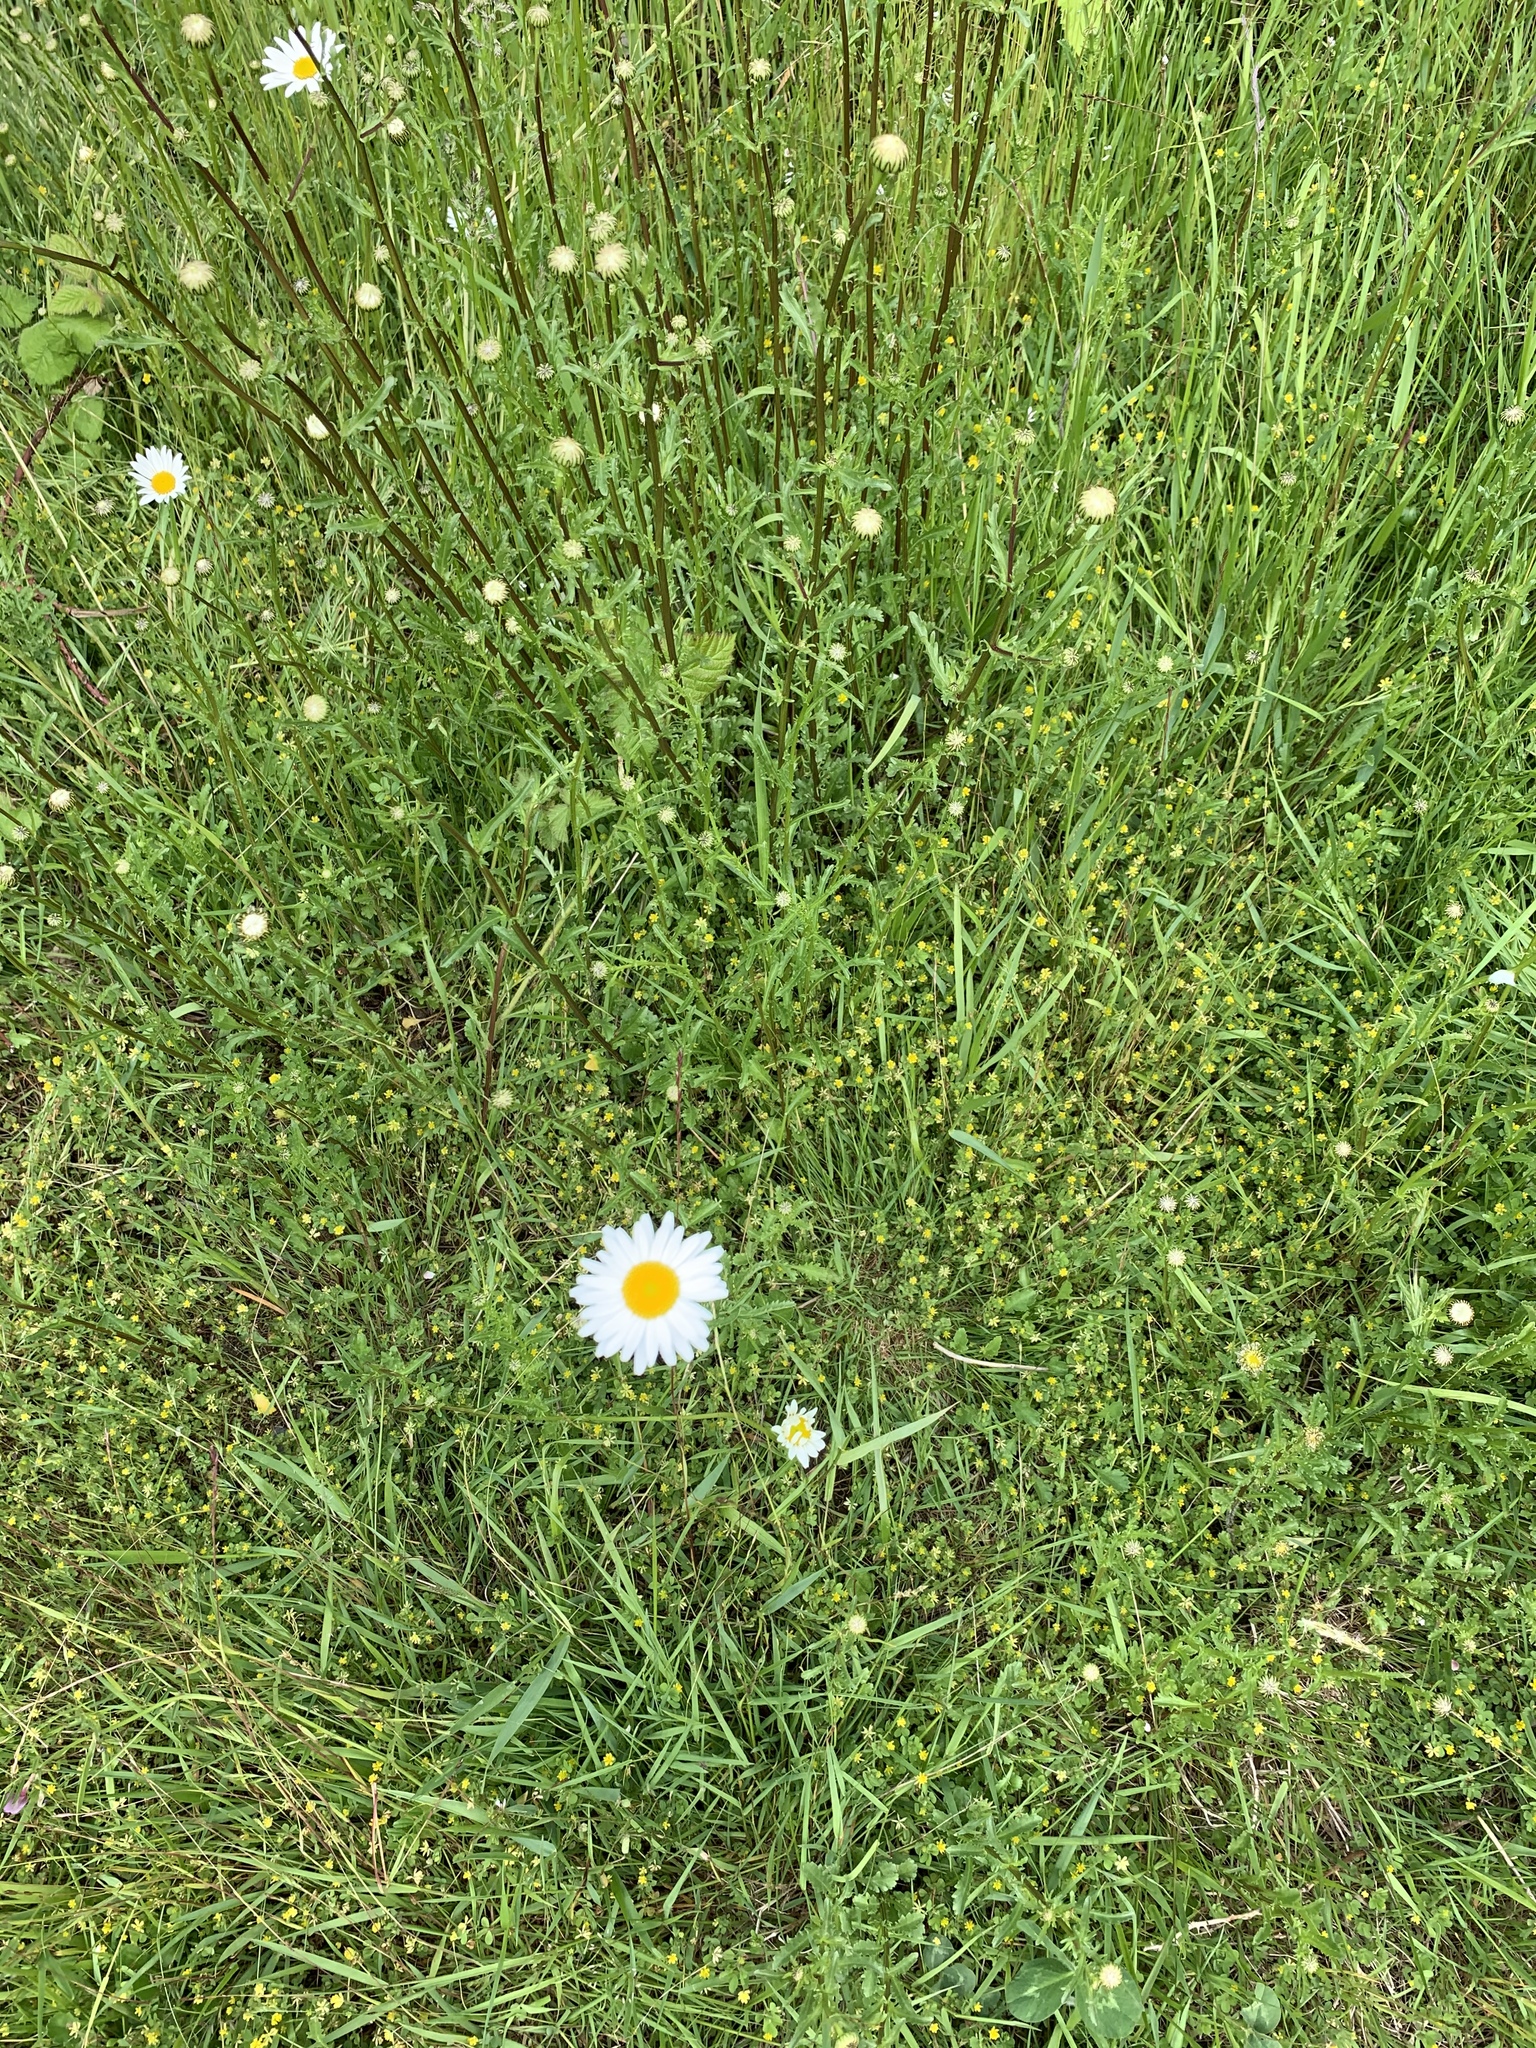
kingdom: Plantae
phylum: Tracheophyta
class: Magnoliopsida
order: Asterales
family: Asteraceae
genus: Leucanthemum
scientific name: Leucanthemum vulgare
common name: Oxeye daisy
